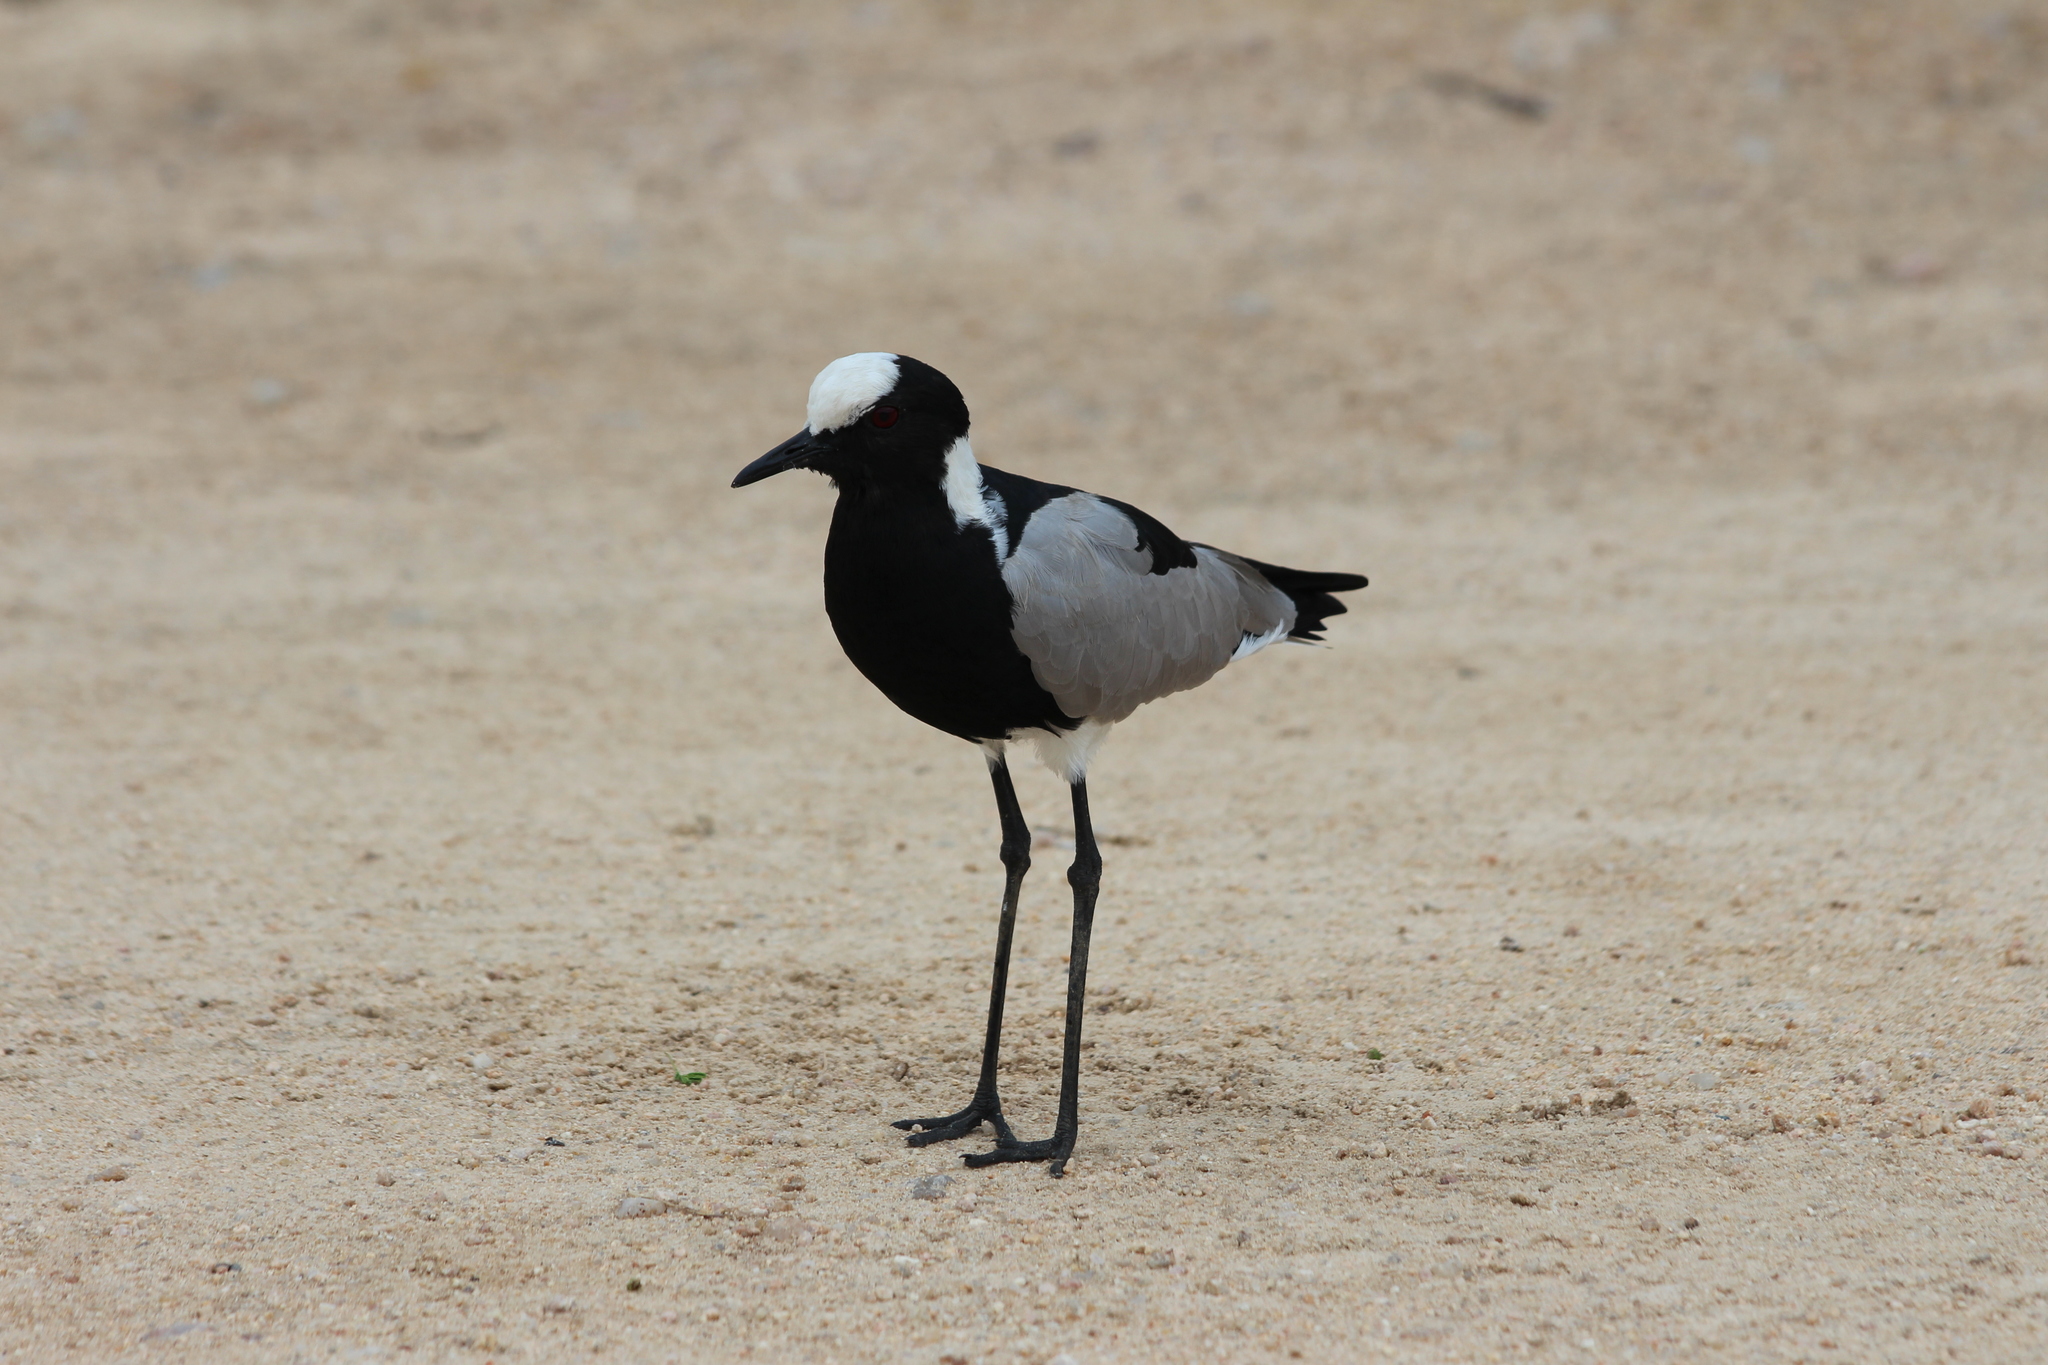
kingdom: Animalia
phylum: Chordata
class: Aves
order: Charadriiformes
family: Charadriidae
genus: Vanellus
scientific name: Vanellus armatus
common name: Blacksmith lapwing
